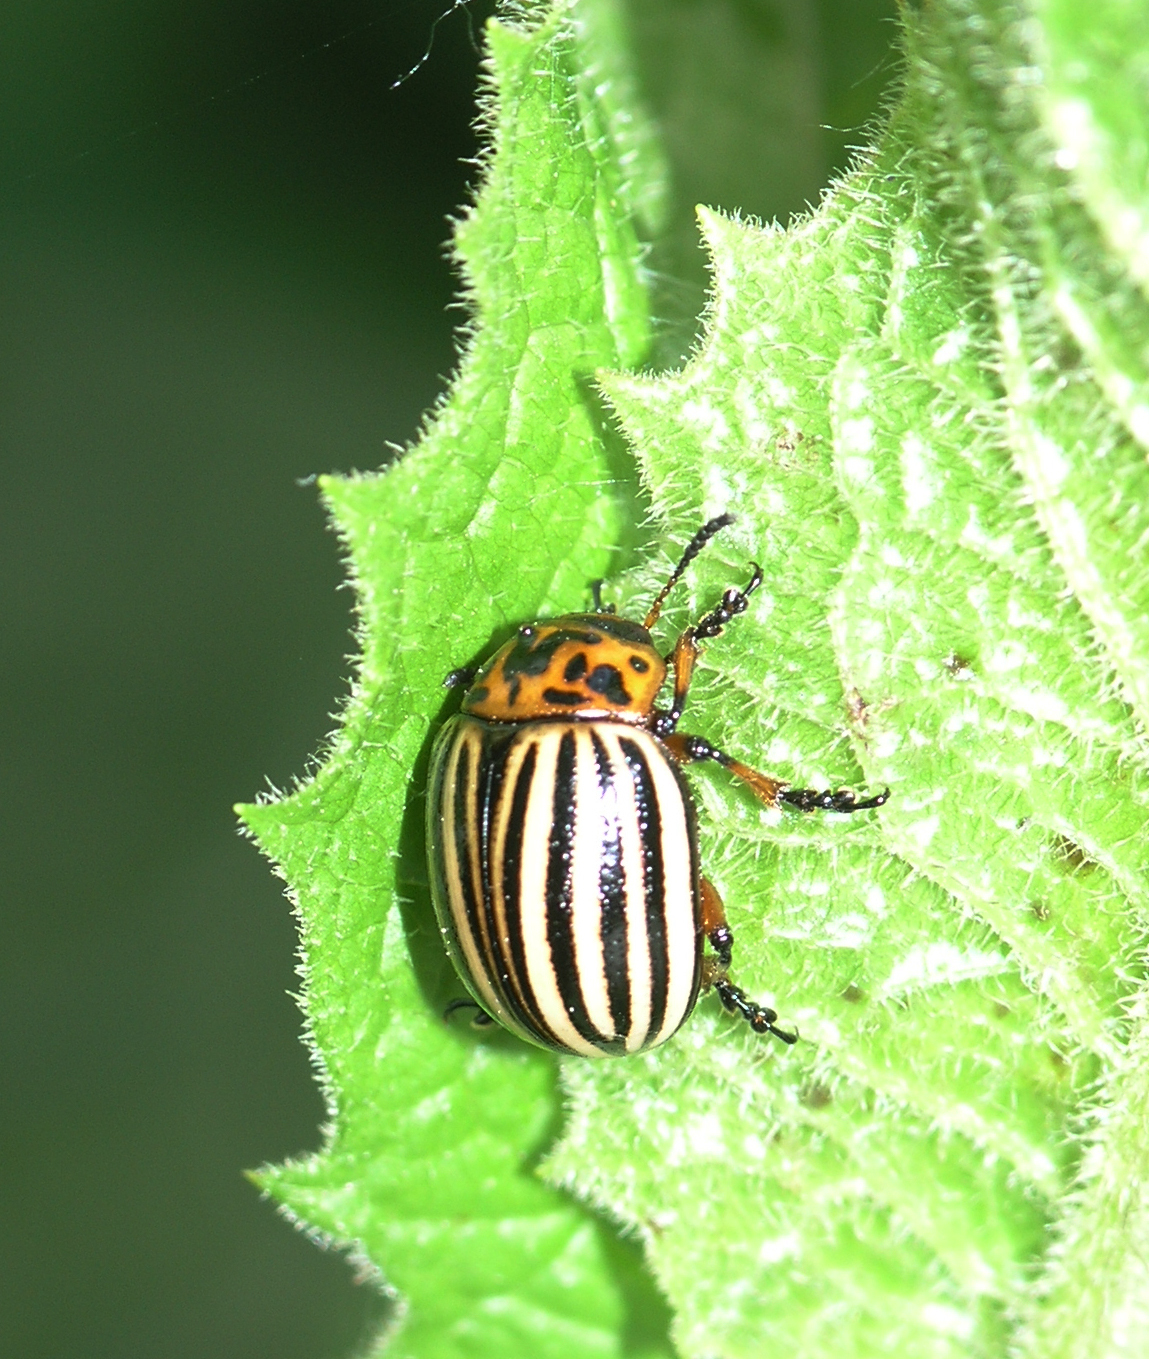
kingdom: Animalia
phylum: Arthropoda
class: Insecta
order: Coleoptera
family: Chrysomelidae
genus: Leptinotarsa
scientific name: Leptinotarsa decemlineata
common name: Colorado potato beetle
